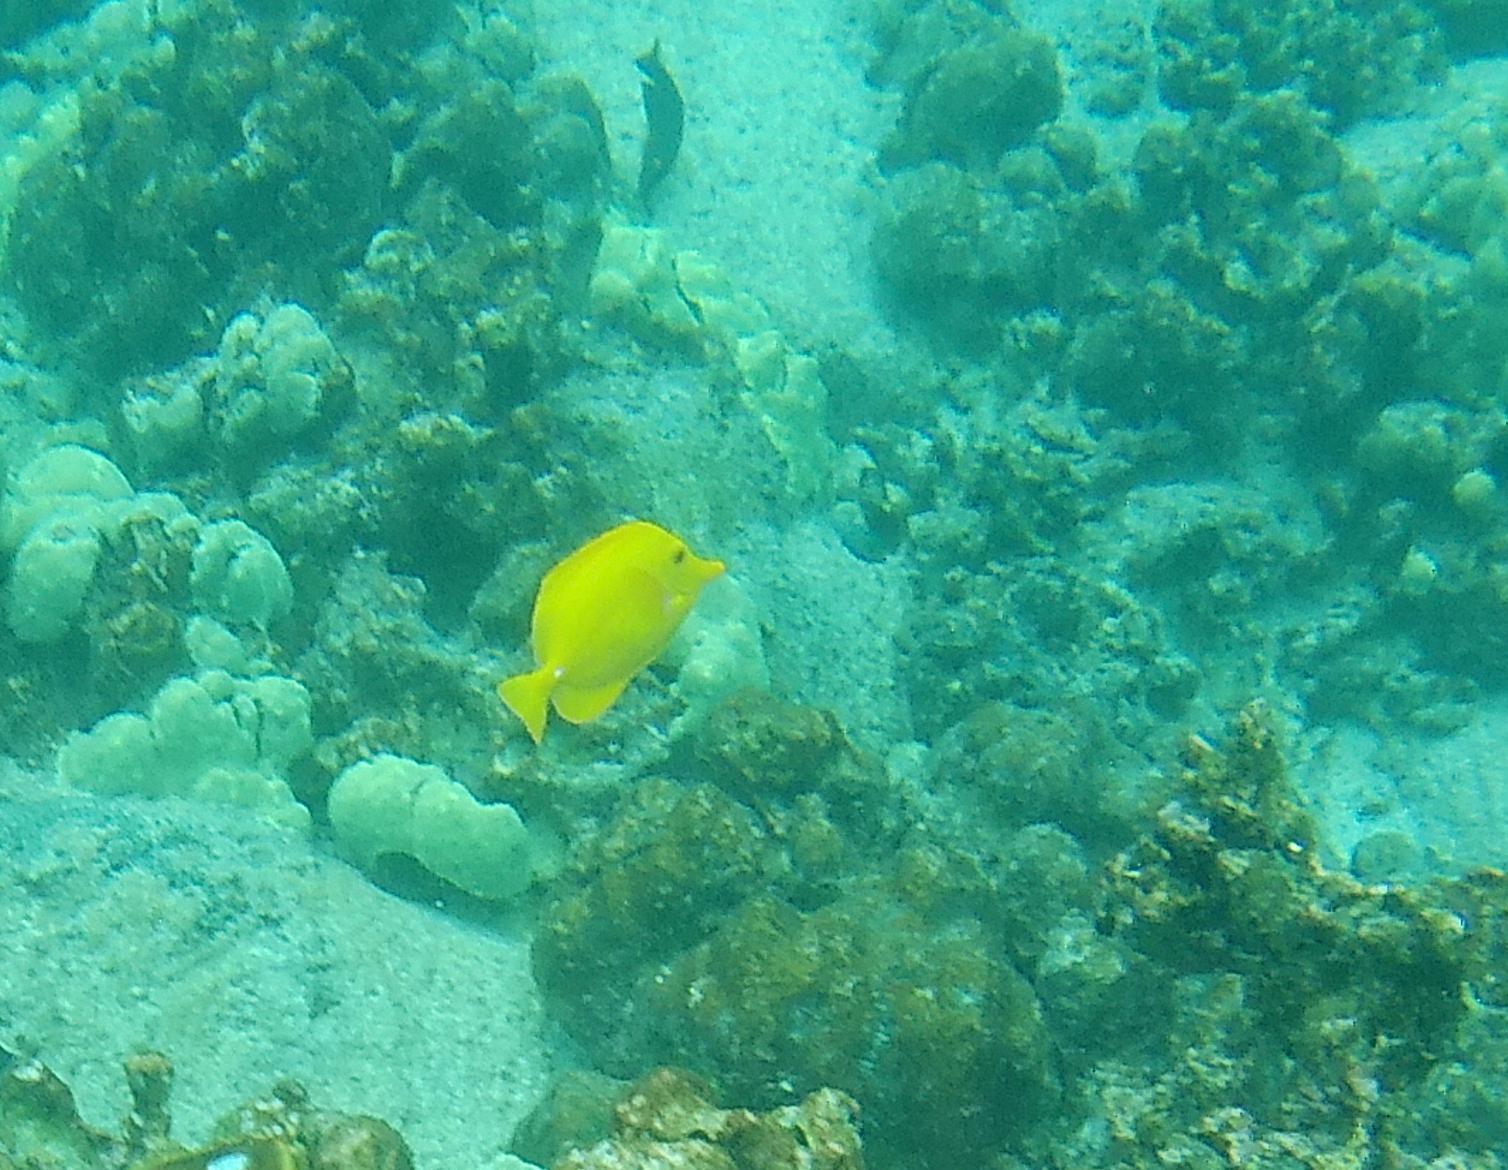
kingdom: Animalia
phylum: Chordata
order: Perciformes
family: Acanthuridae
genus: Zebrasoma
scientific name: Zebrasoma flavescens
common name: Yellow tang
